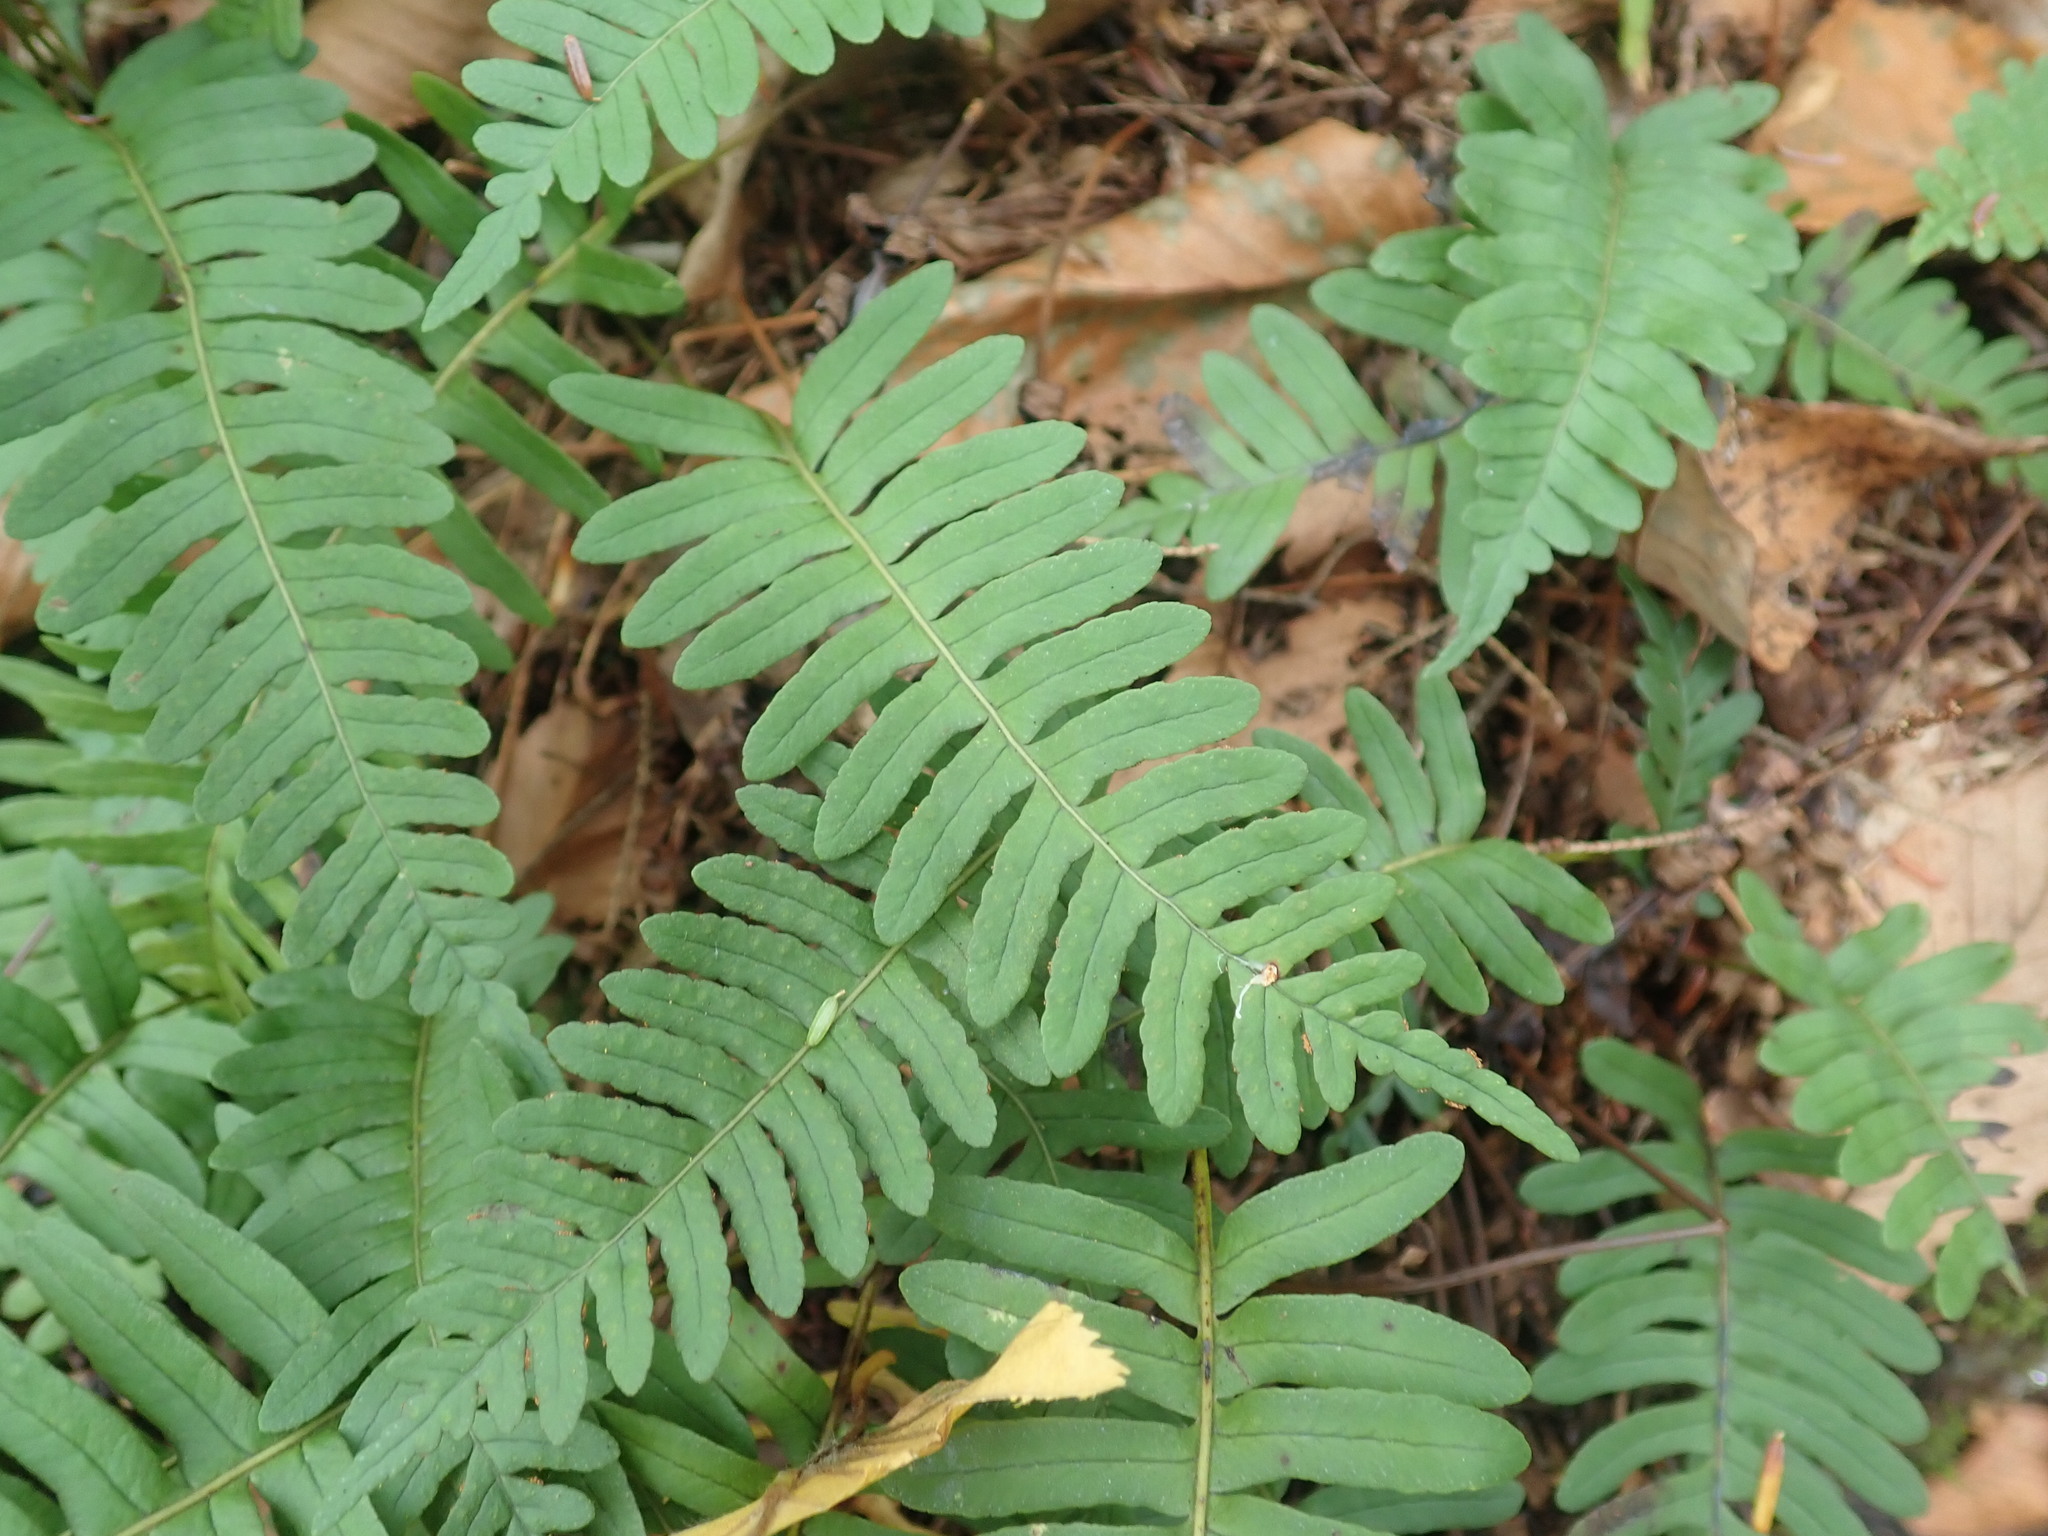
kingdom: Plantae
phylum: Tracheophyta
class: Polypodiopsida
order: Polypodiales
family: Polypodiaceae
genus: Polypodium
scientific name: Polypodium
